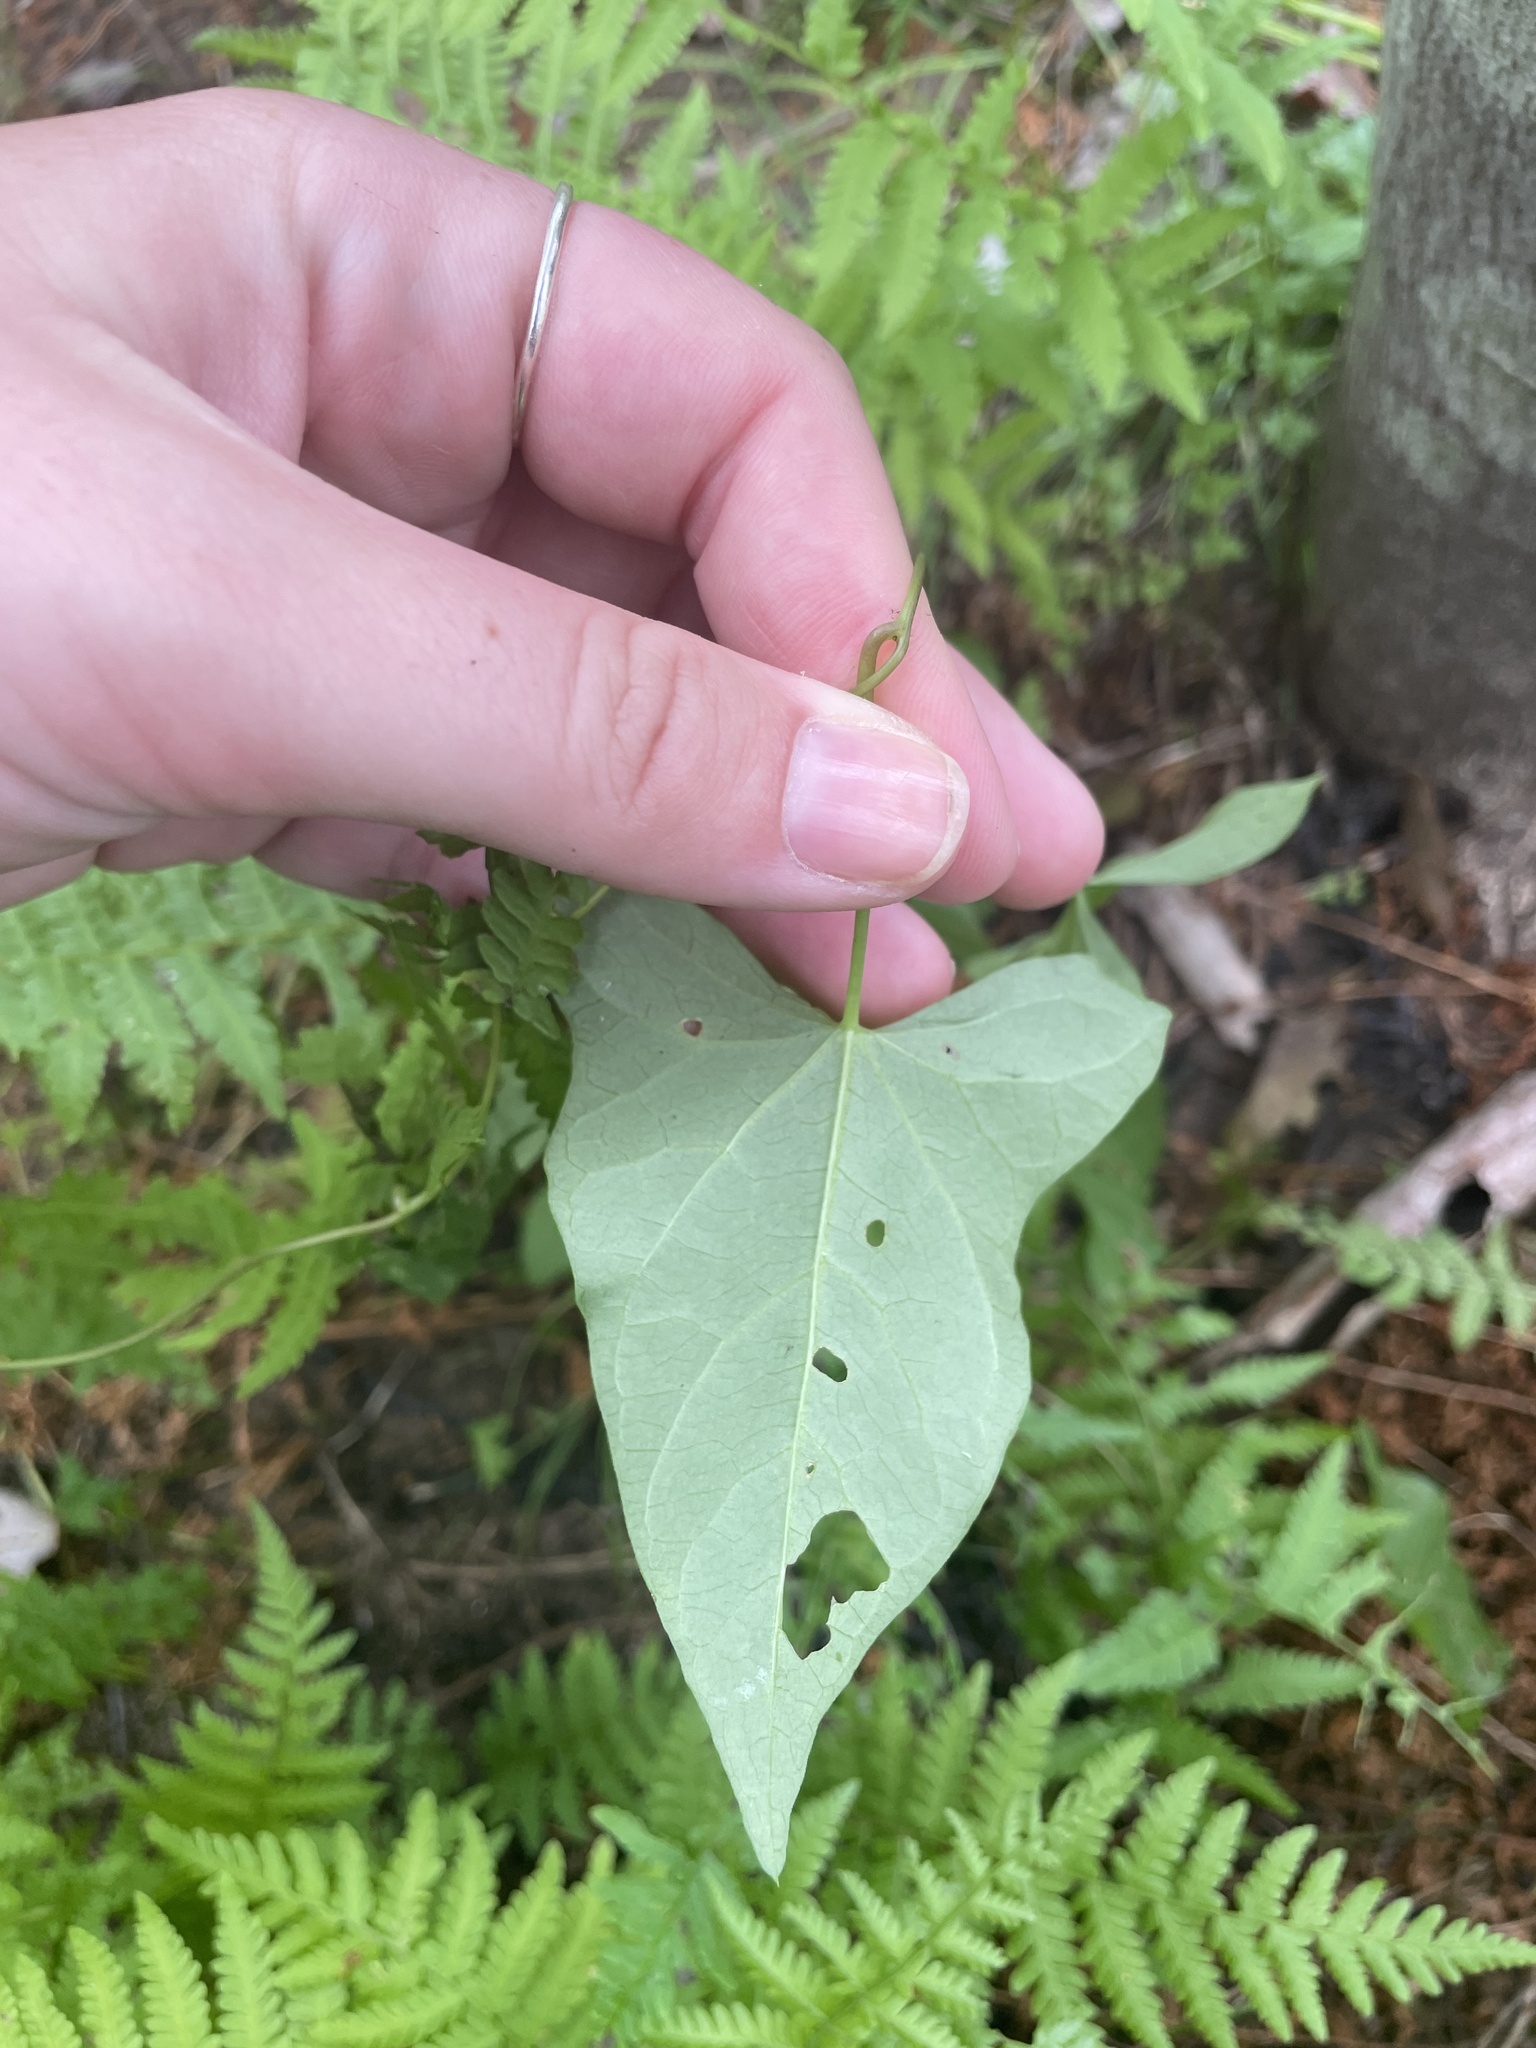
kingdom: Plantae
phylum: Tracheophyta
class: Magnoliopsida
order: Solanales
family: Convolvulaceae
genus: Calystegia
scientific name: Calystegia sepium
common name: Hedge bindweed
